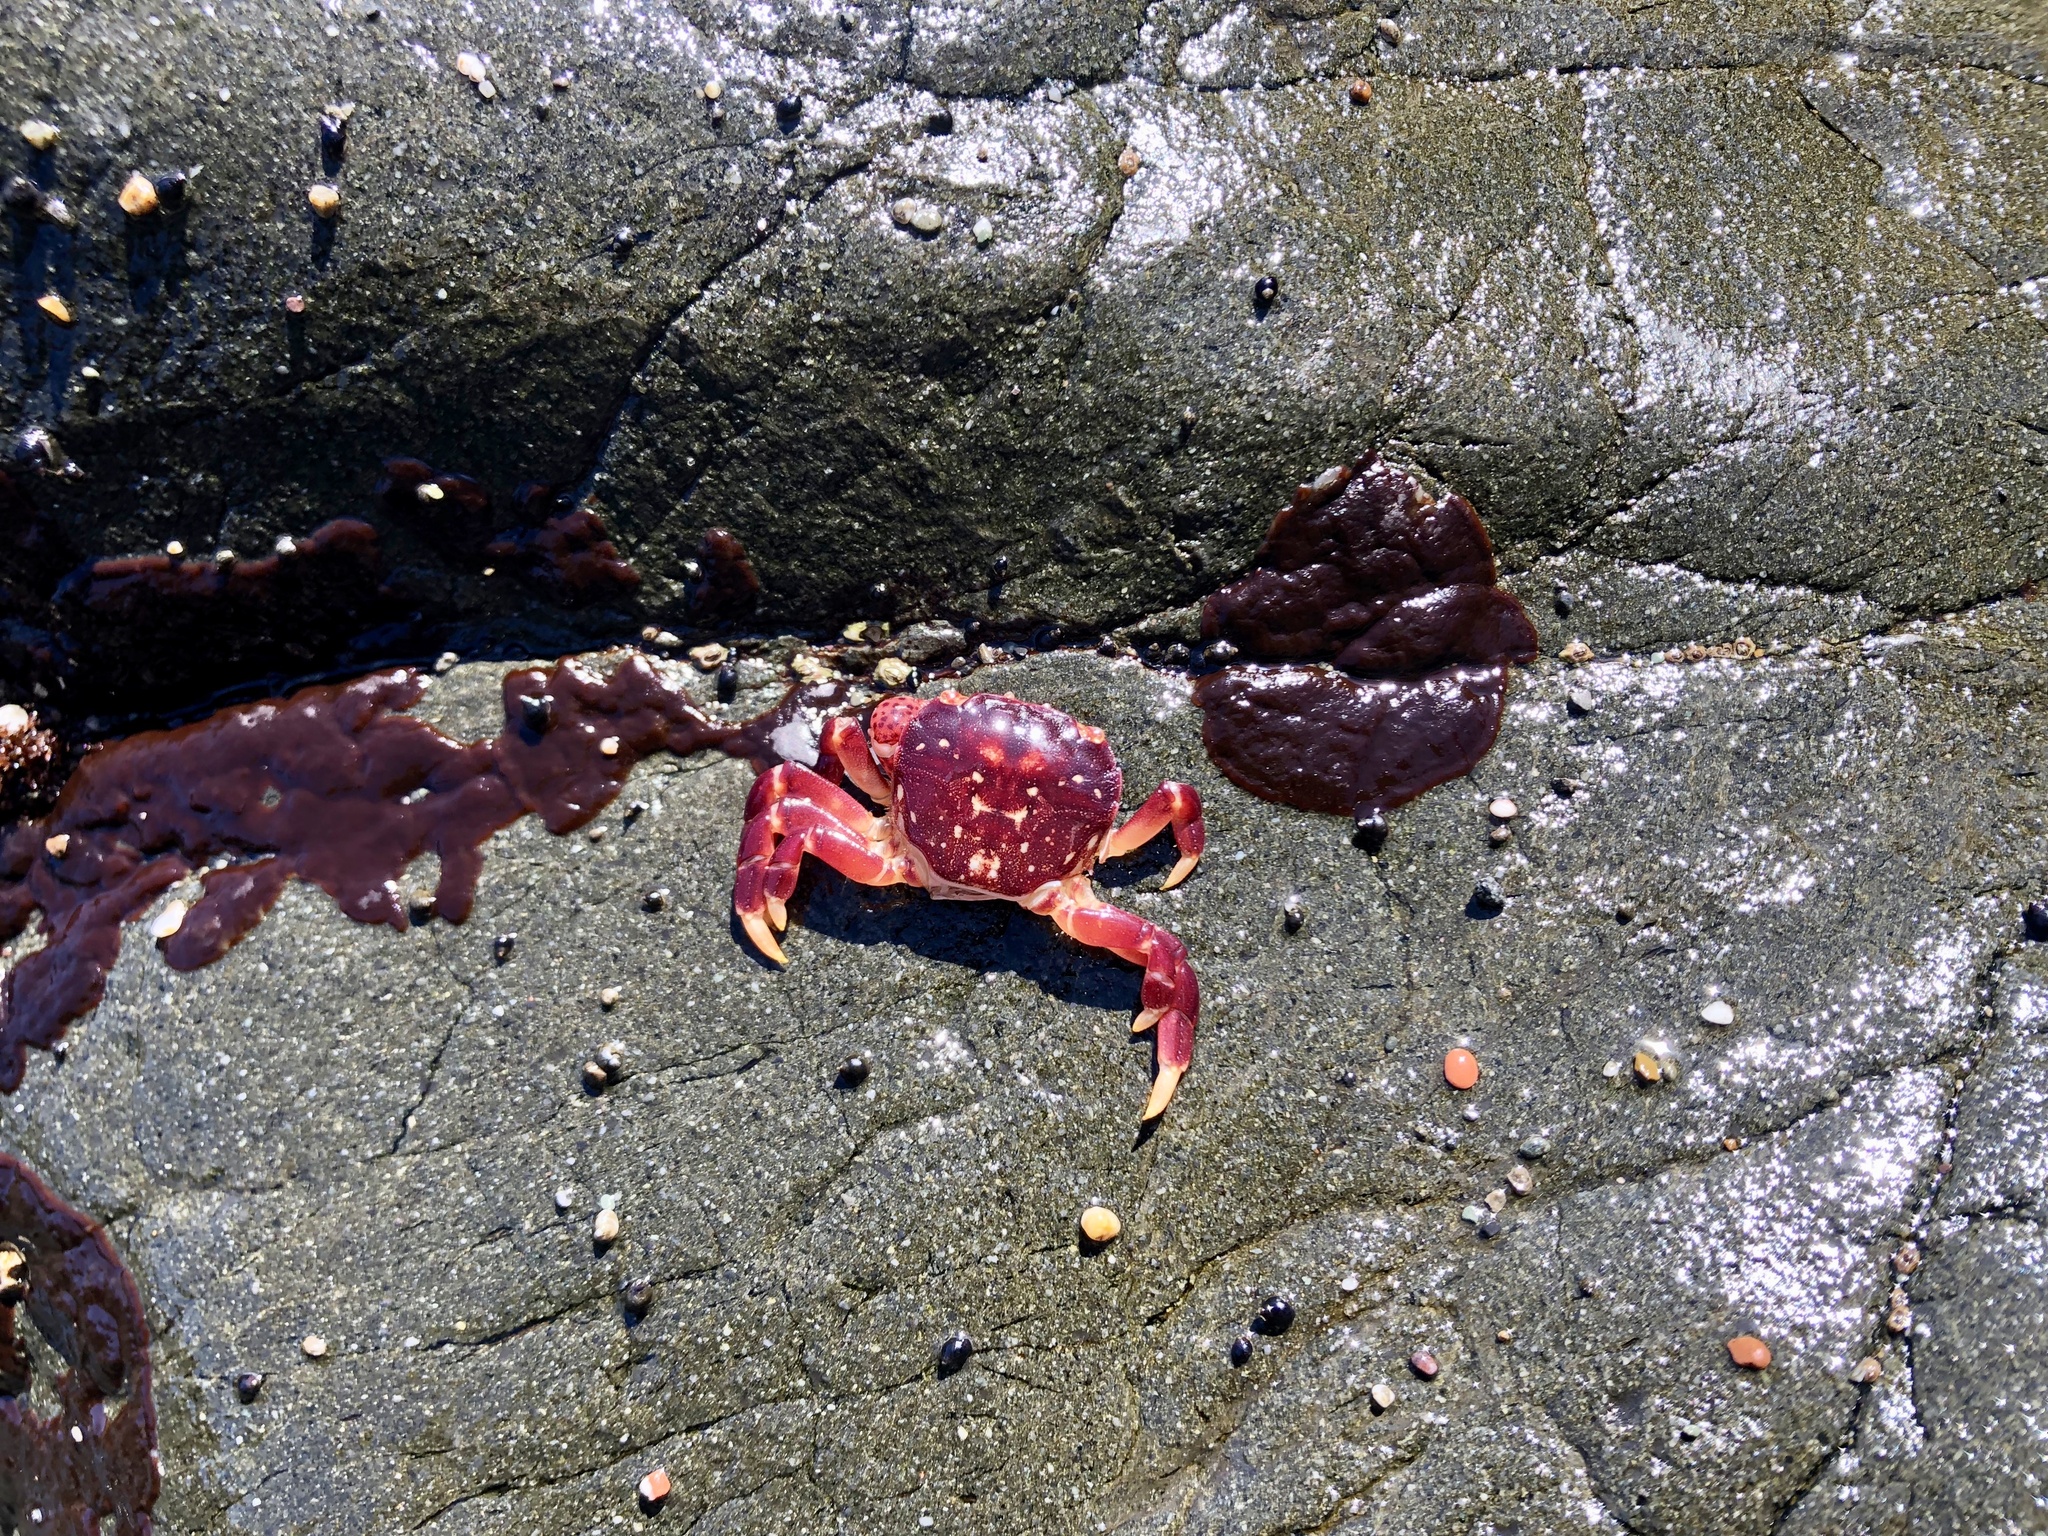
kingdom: Animalia
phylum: Arthropoda
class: Malacostraca
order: Decapoda
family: Varunidae
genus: Hemigrapsus
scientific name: Hemigrapsus nudus
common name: Purple shore crab
